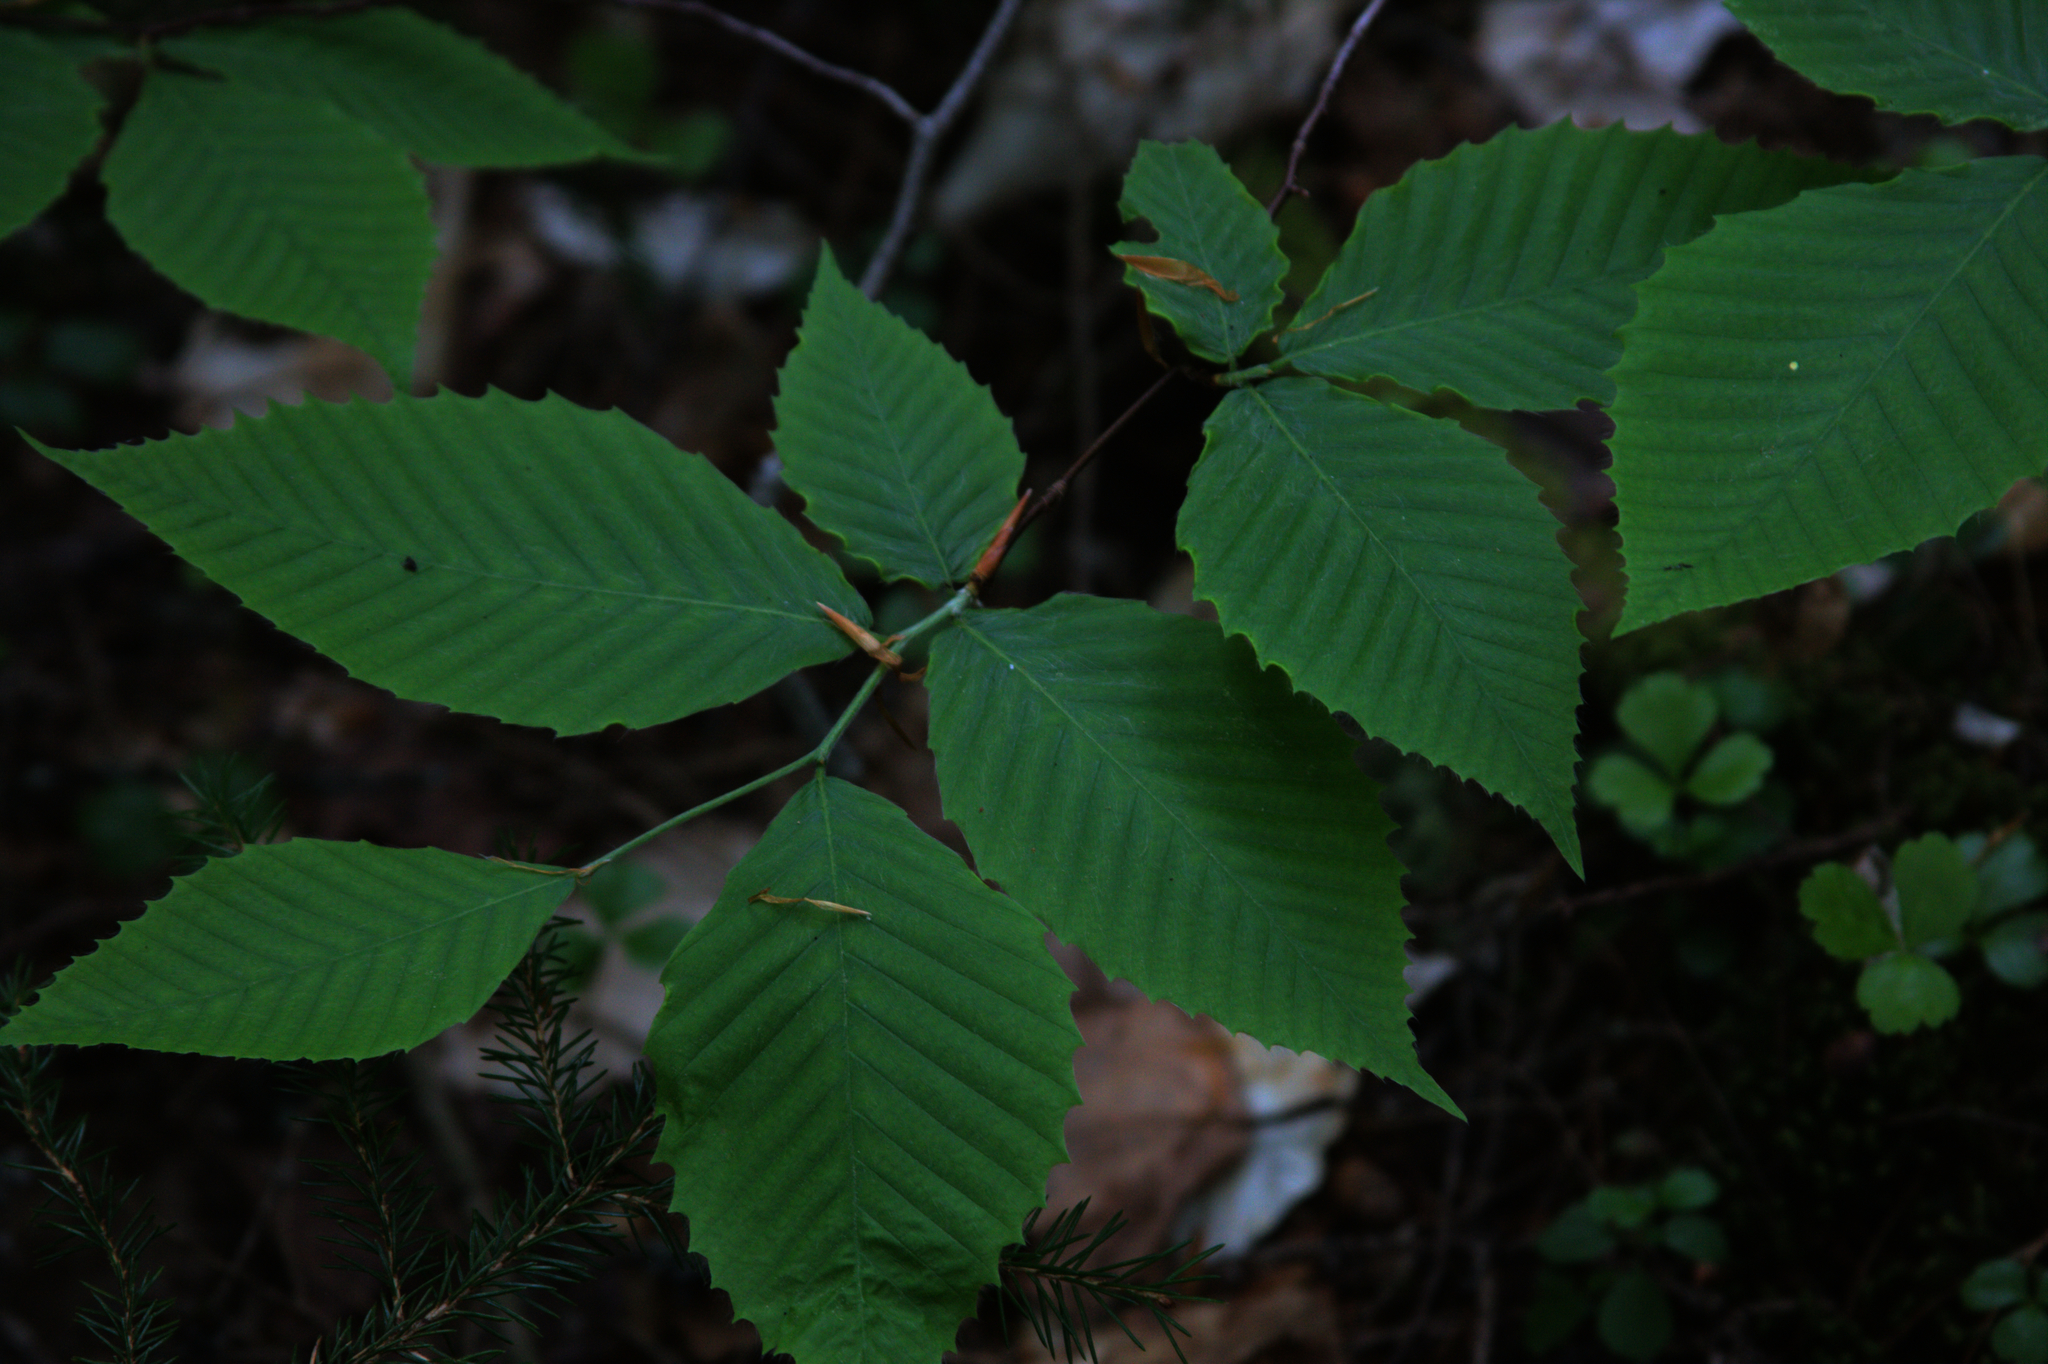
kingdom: Plantae
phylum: Tracheophyta
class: Magnoliopsida
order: Fagales
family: Fagaceae
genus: Fagus
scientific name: Fagus grandifolia
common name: American beech
